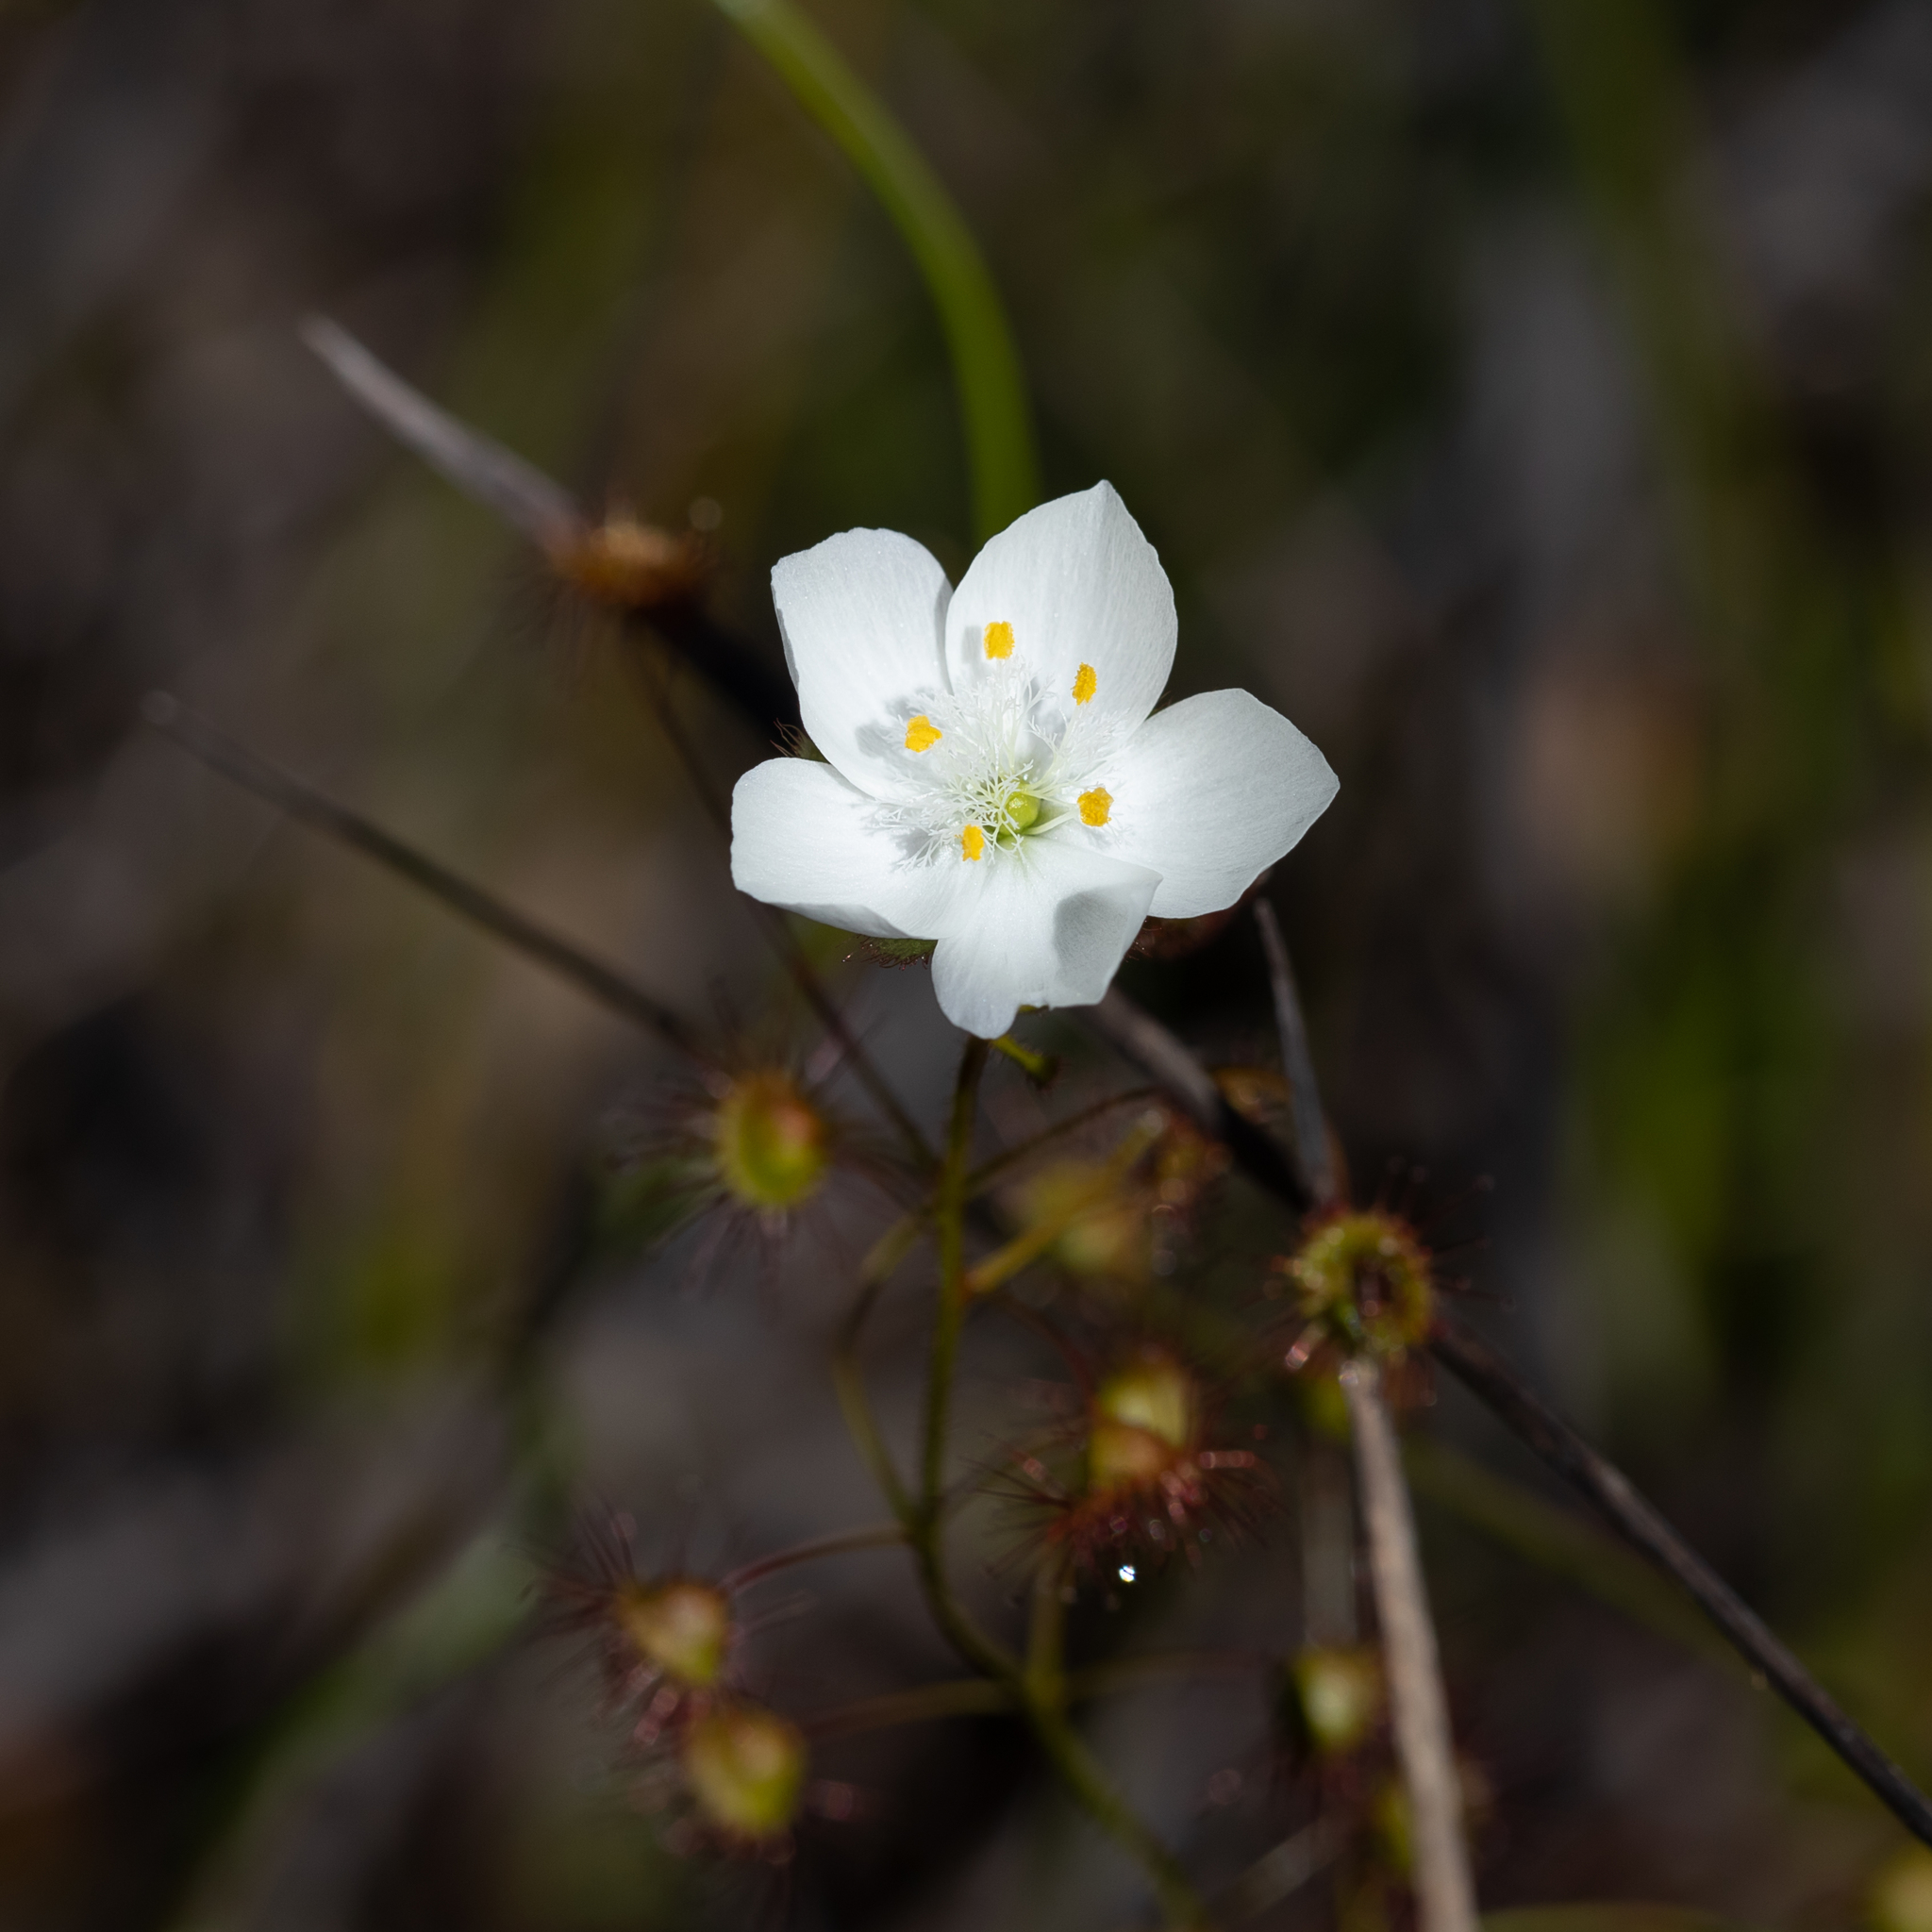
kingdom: Plantae
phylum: Tracheophyta
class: Magnoliopsida
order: Caryophyllales
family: Droseraceae
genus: Drosera
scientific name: Drosera planchonii
